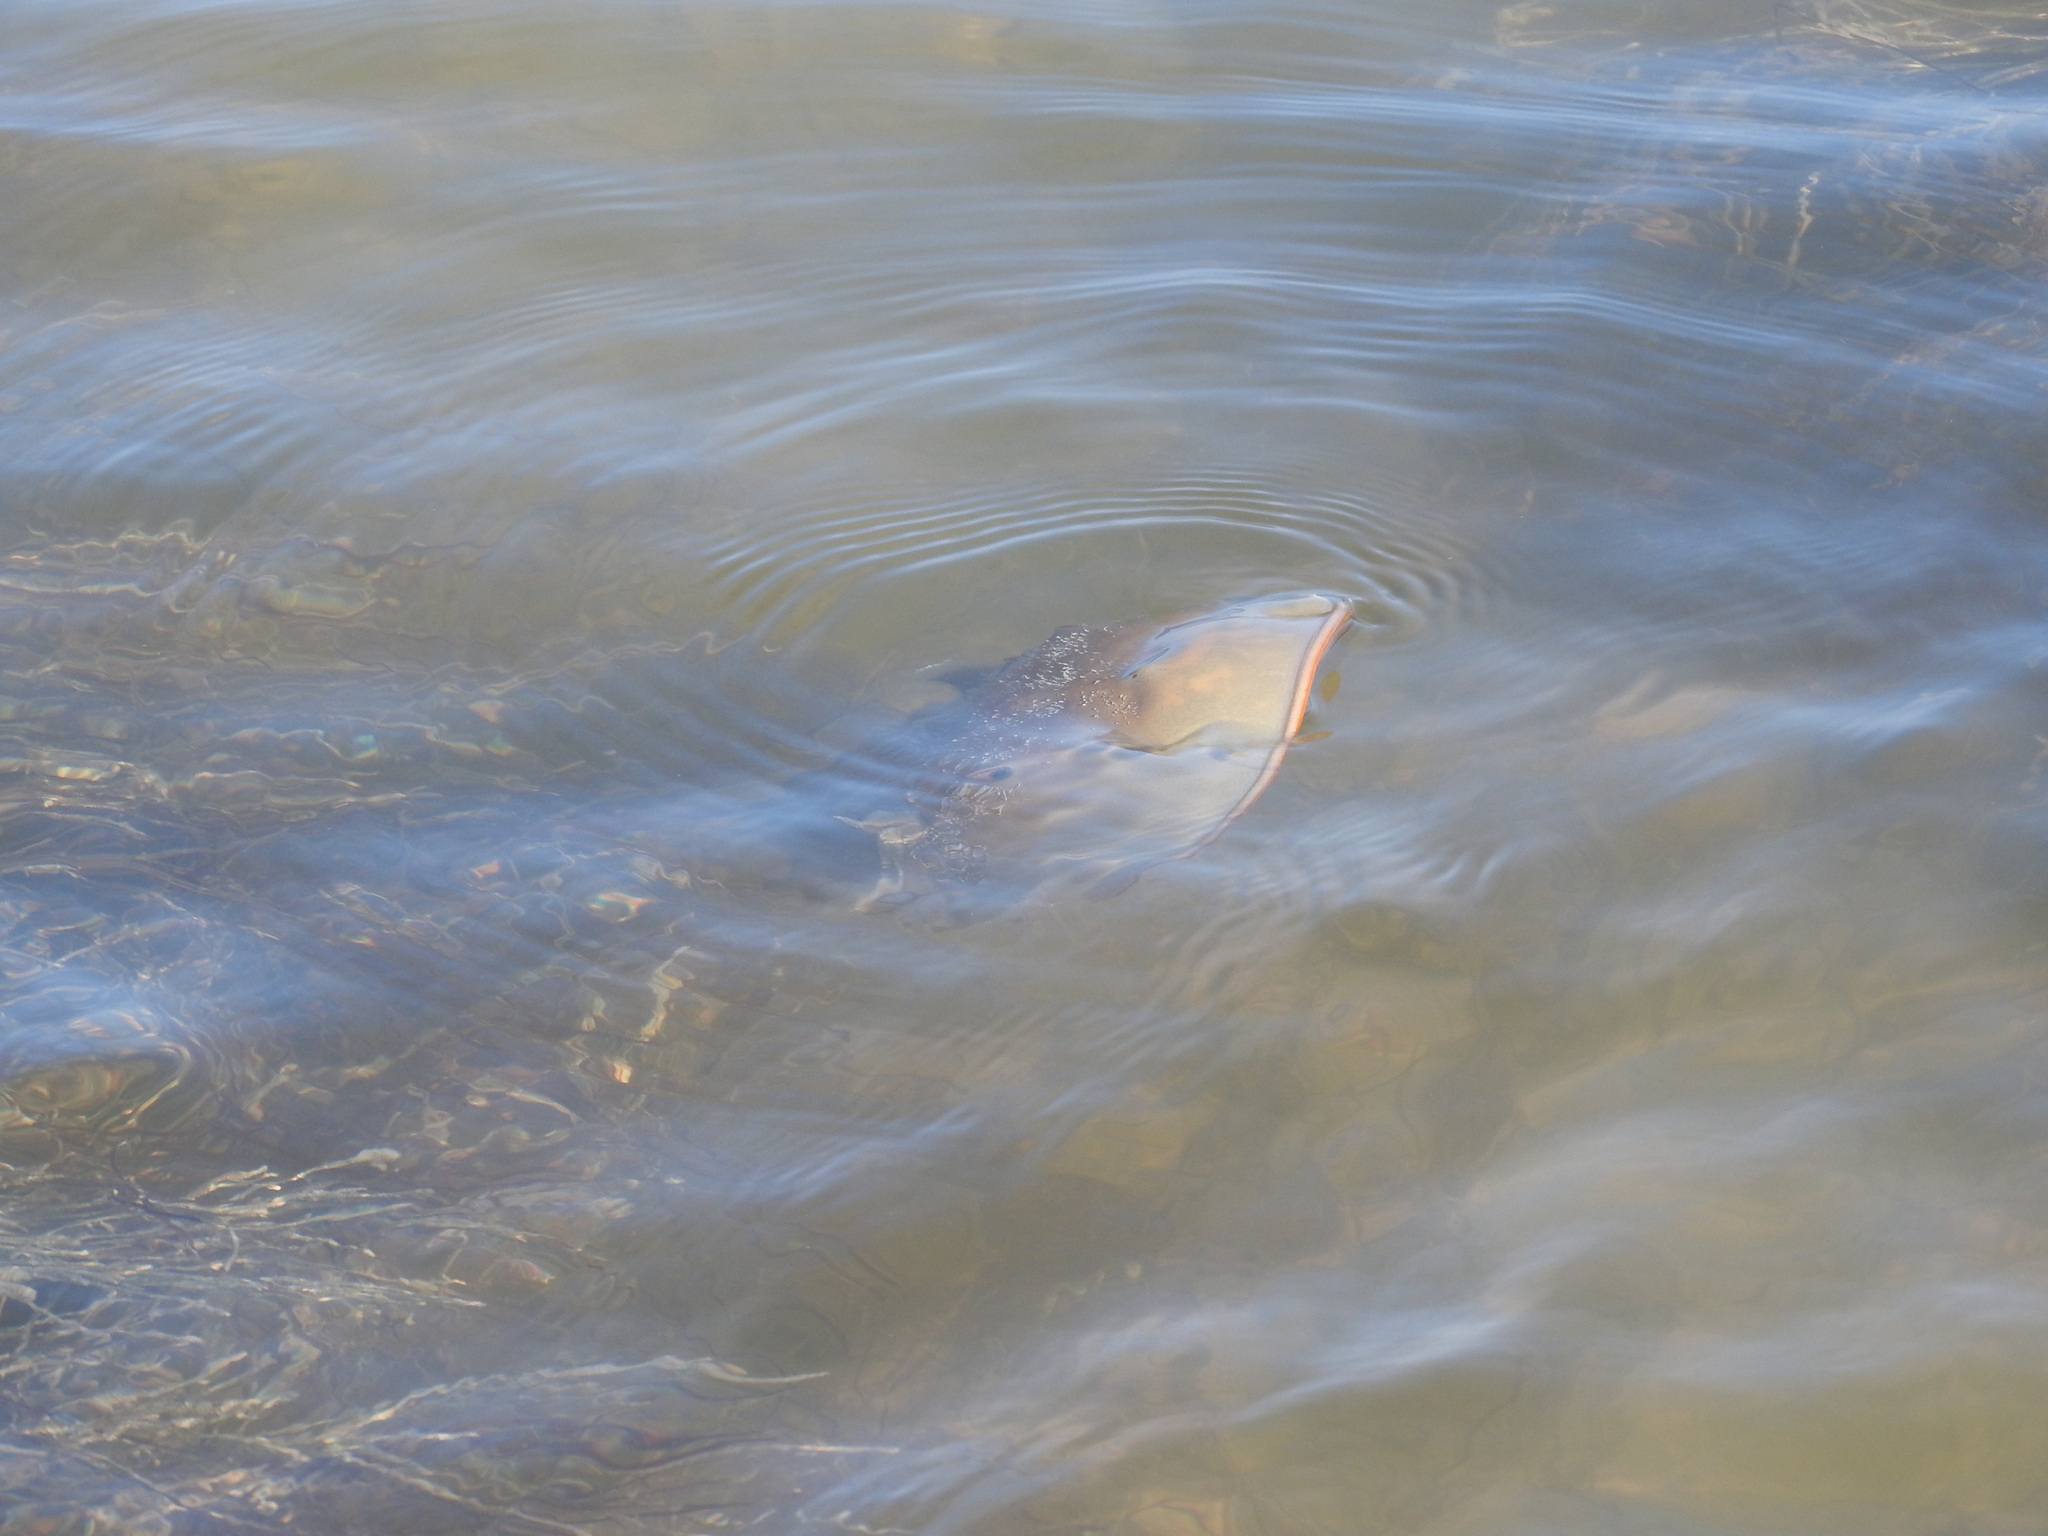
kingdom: Animalia
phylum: Arthropoda
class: Merostomata
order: Xiphosurida
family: Limulidae
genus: Limulus
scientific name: Limulus polyphemus
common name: Horseshoe crab
